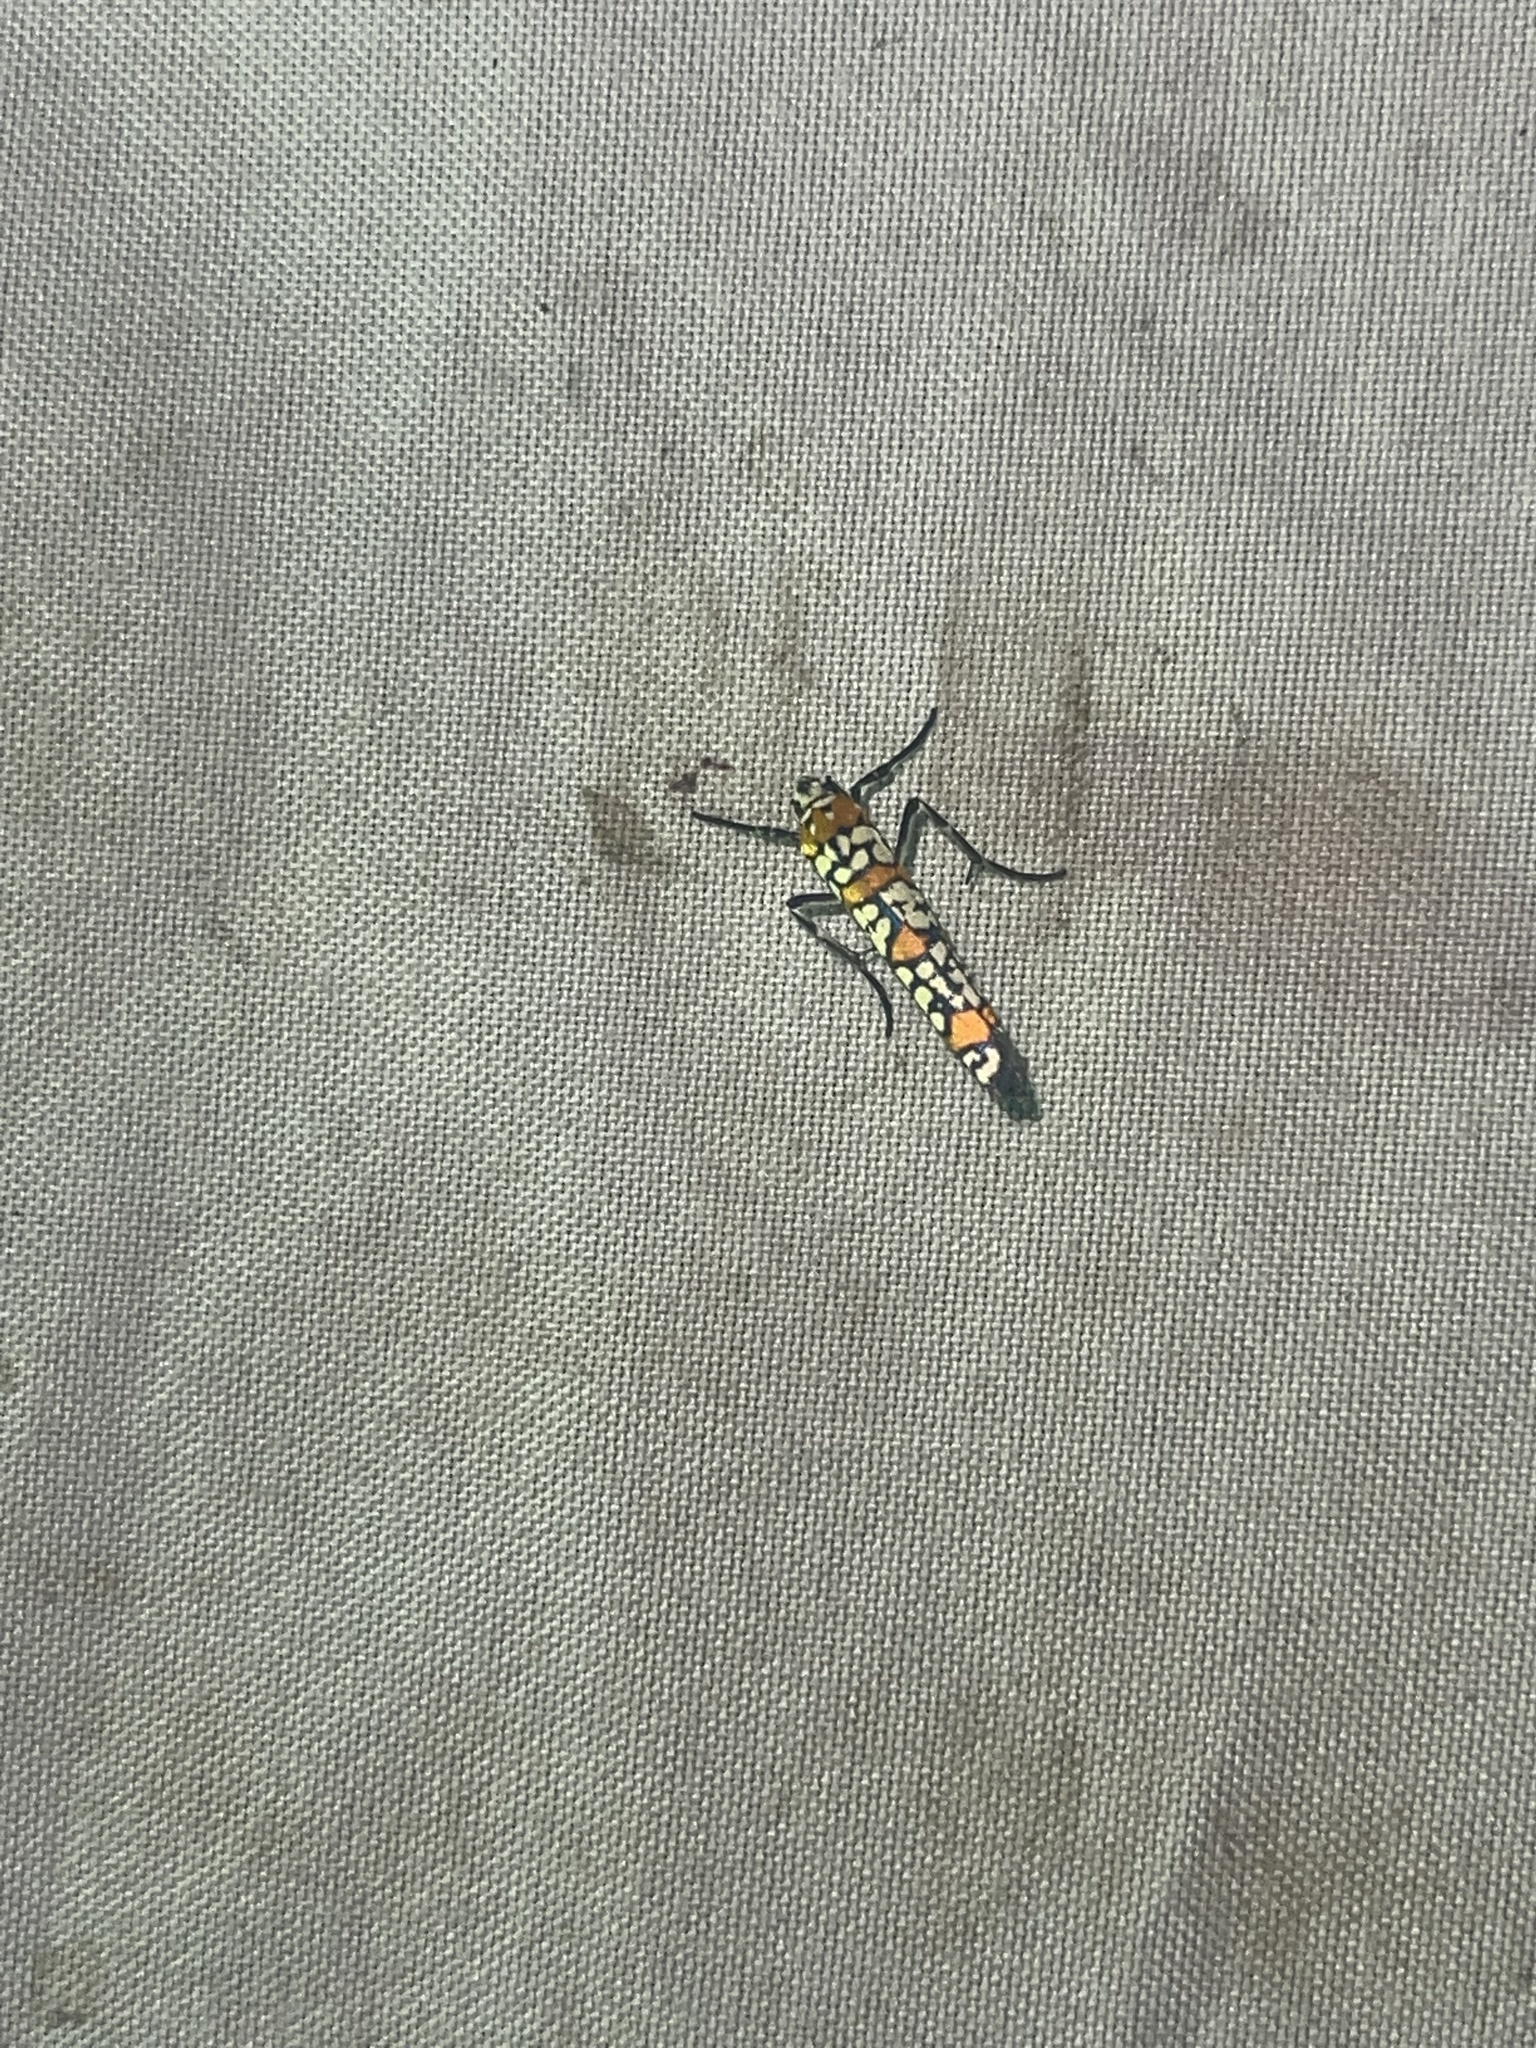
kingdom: Animalia
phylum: Arthropoda
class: Insecta
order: Lepidoptera
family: Attevidae
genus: Atteva
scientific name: Atteva punctella
